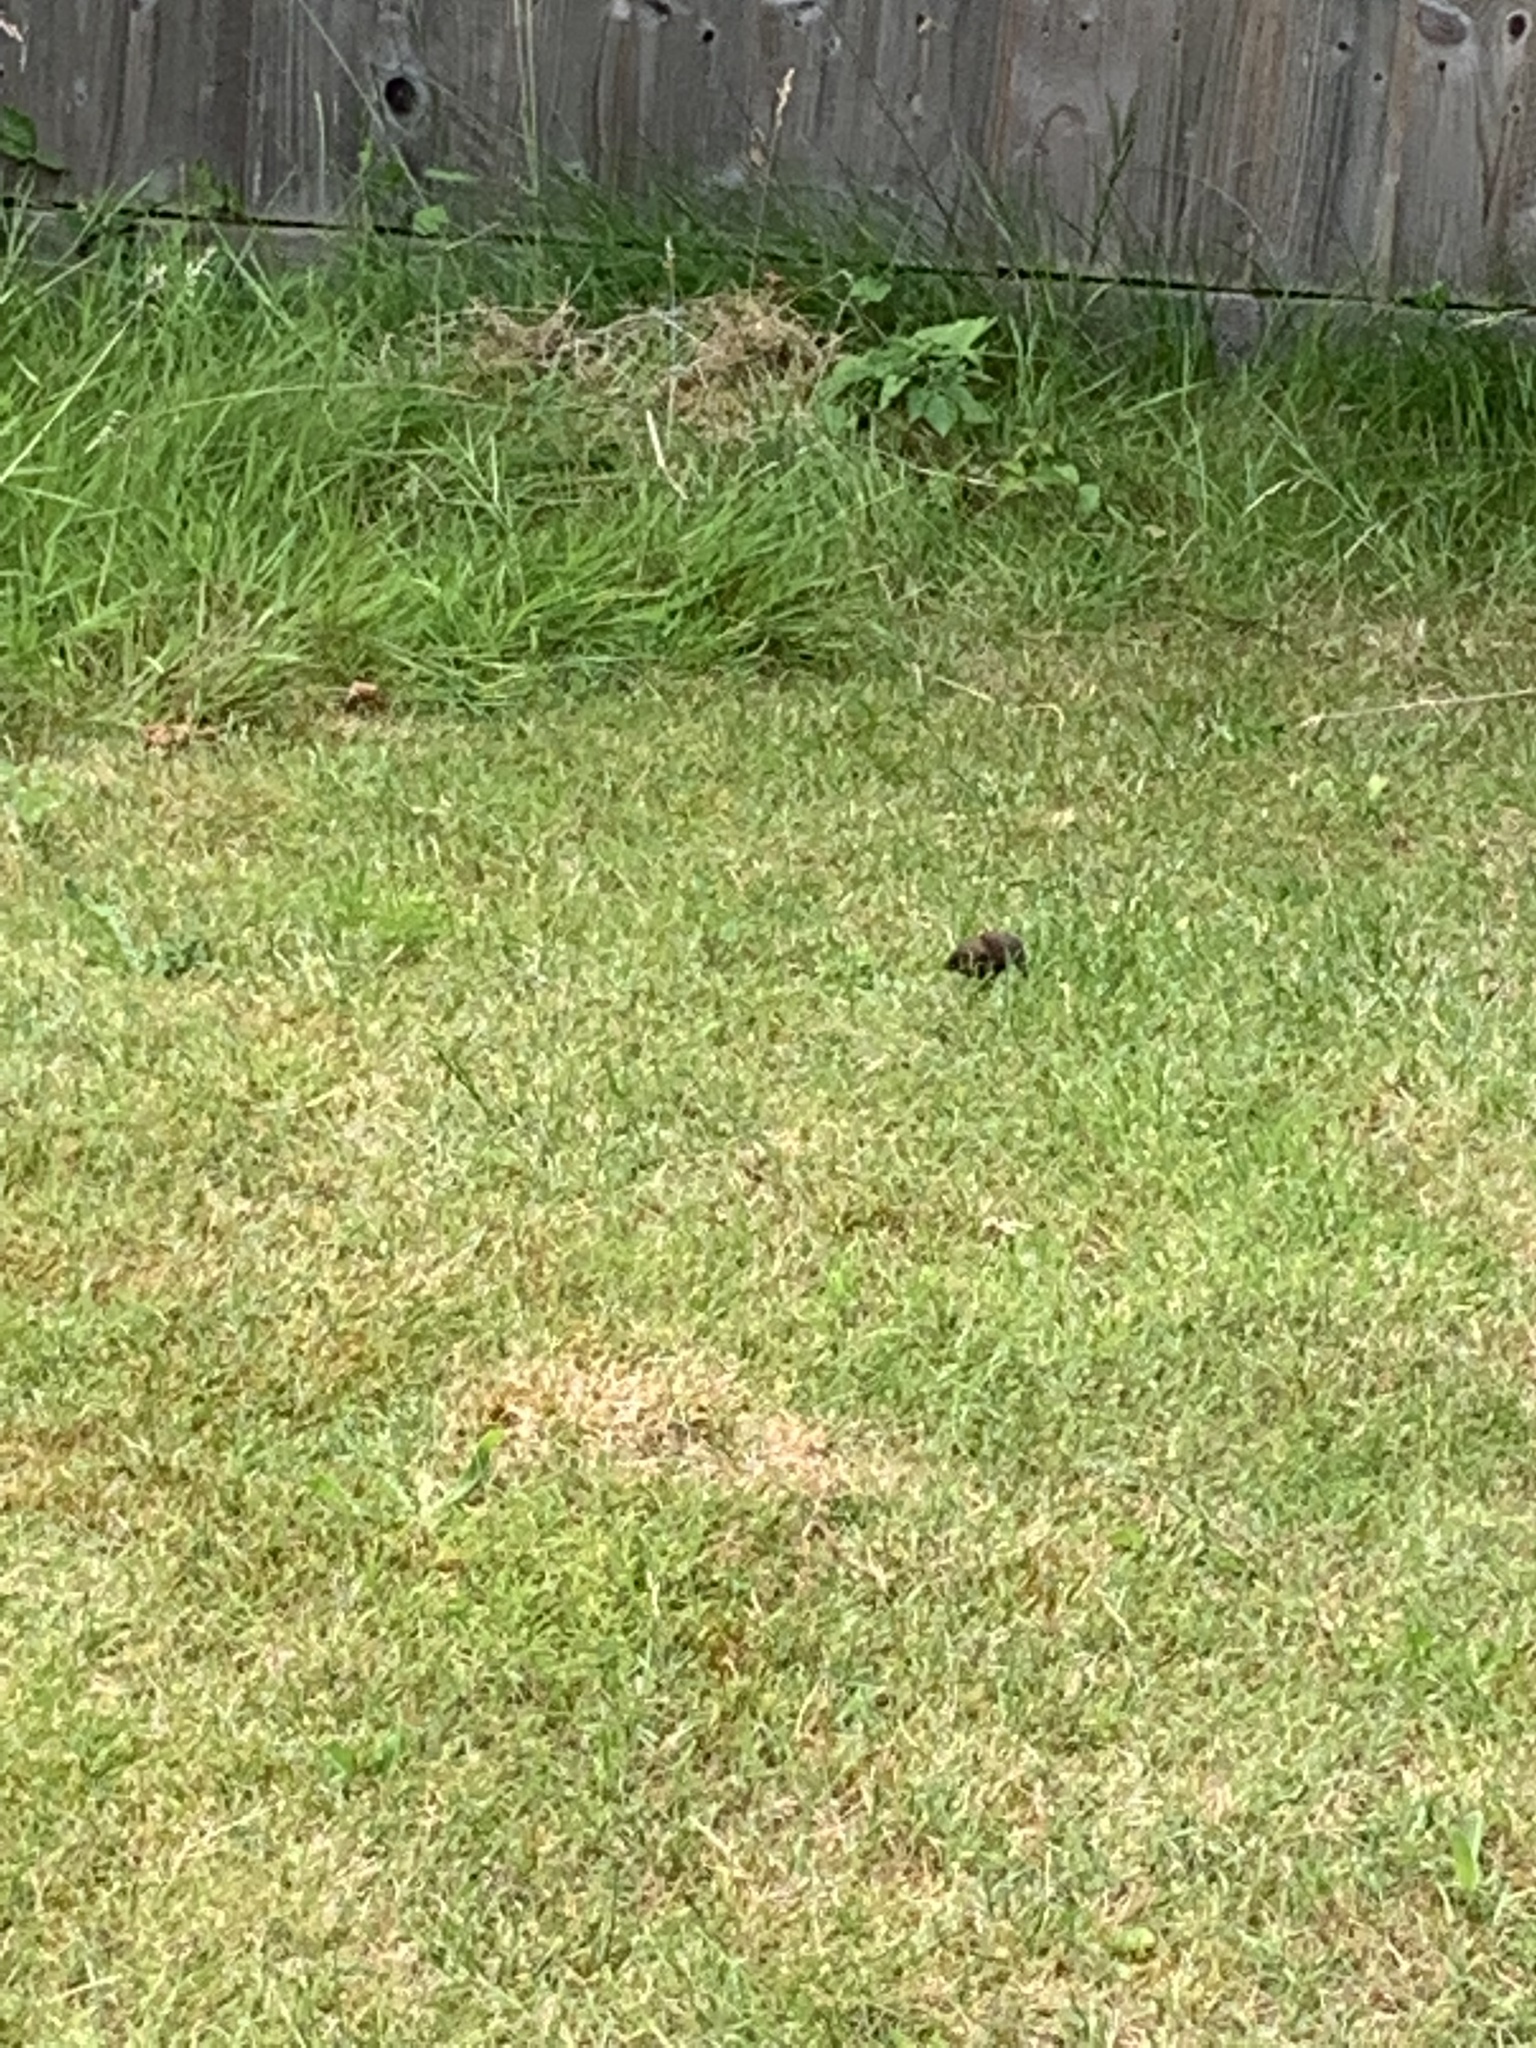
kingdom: Animalia
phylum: Chordata
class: Mammalia
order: Rodentia
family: Cricetidae
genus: Microtus
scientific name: Microtus agrestis
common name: Field vole
